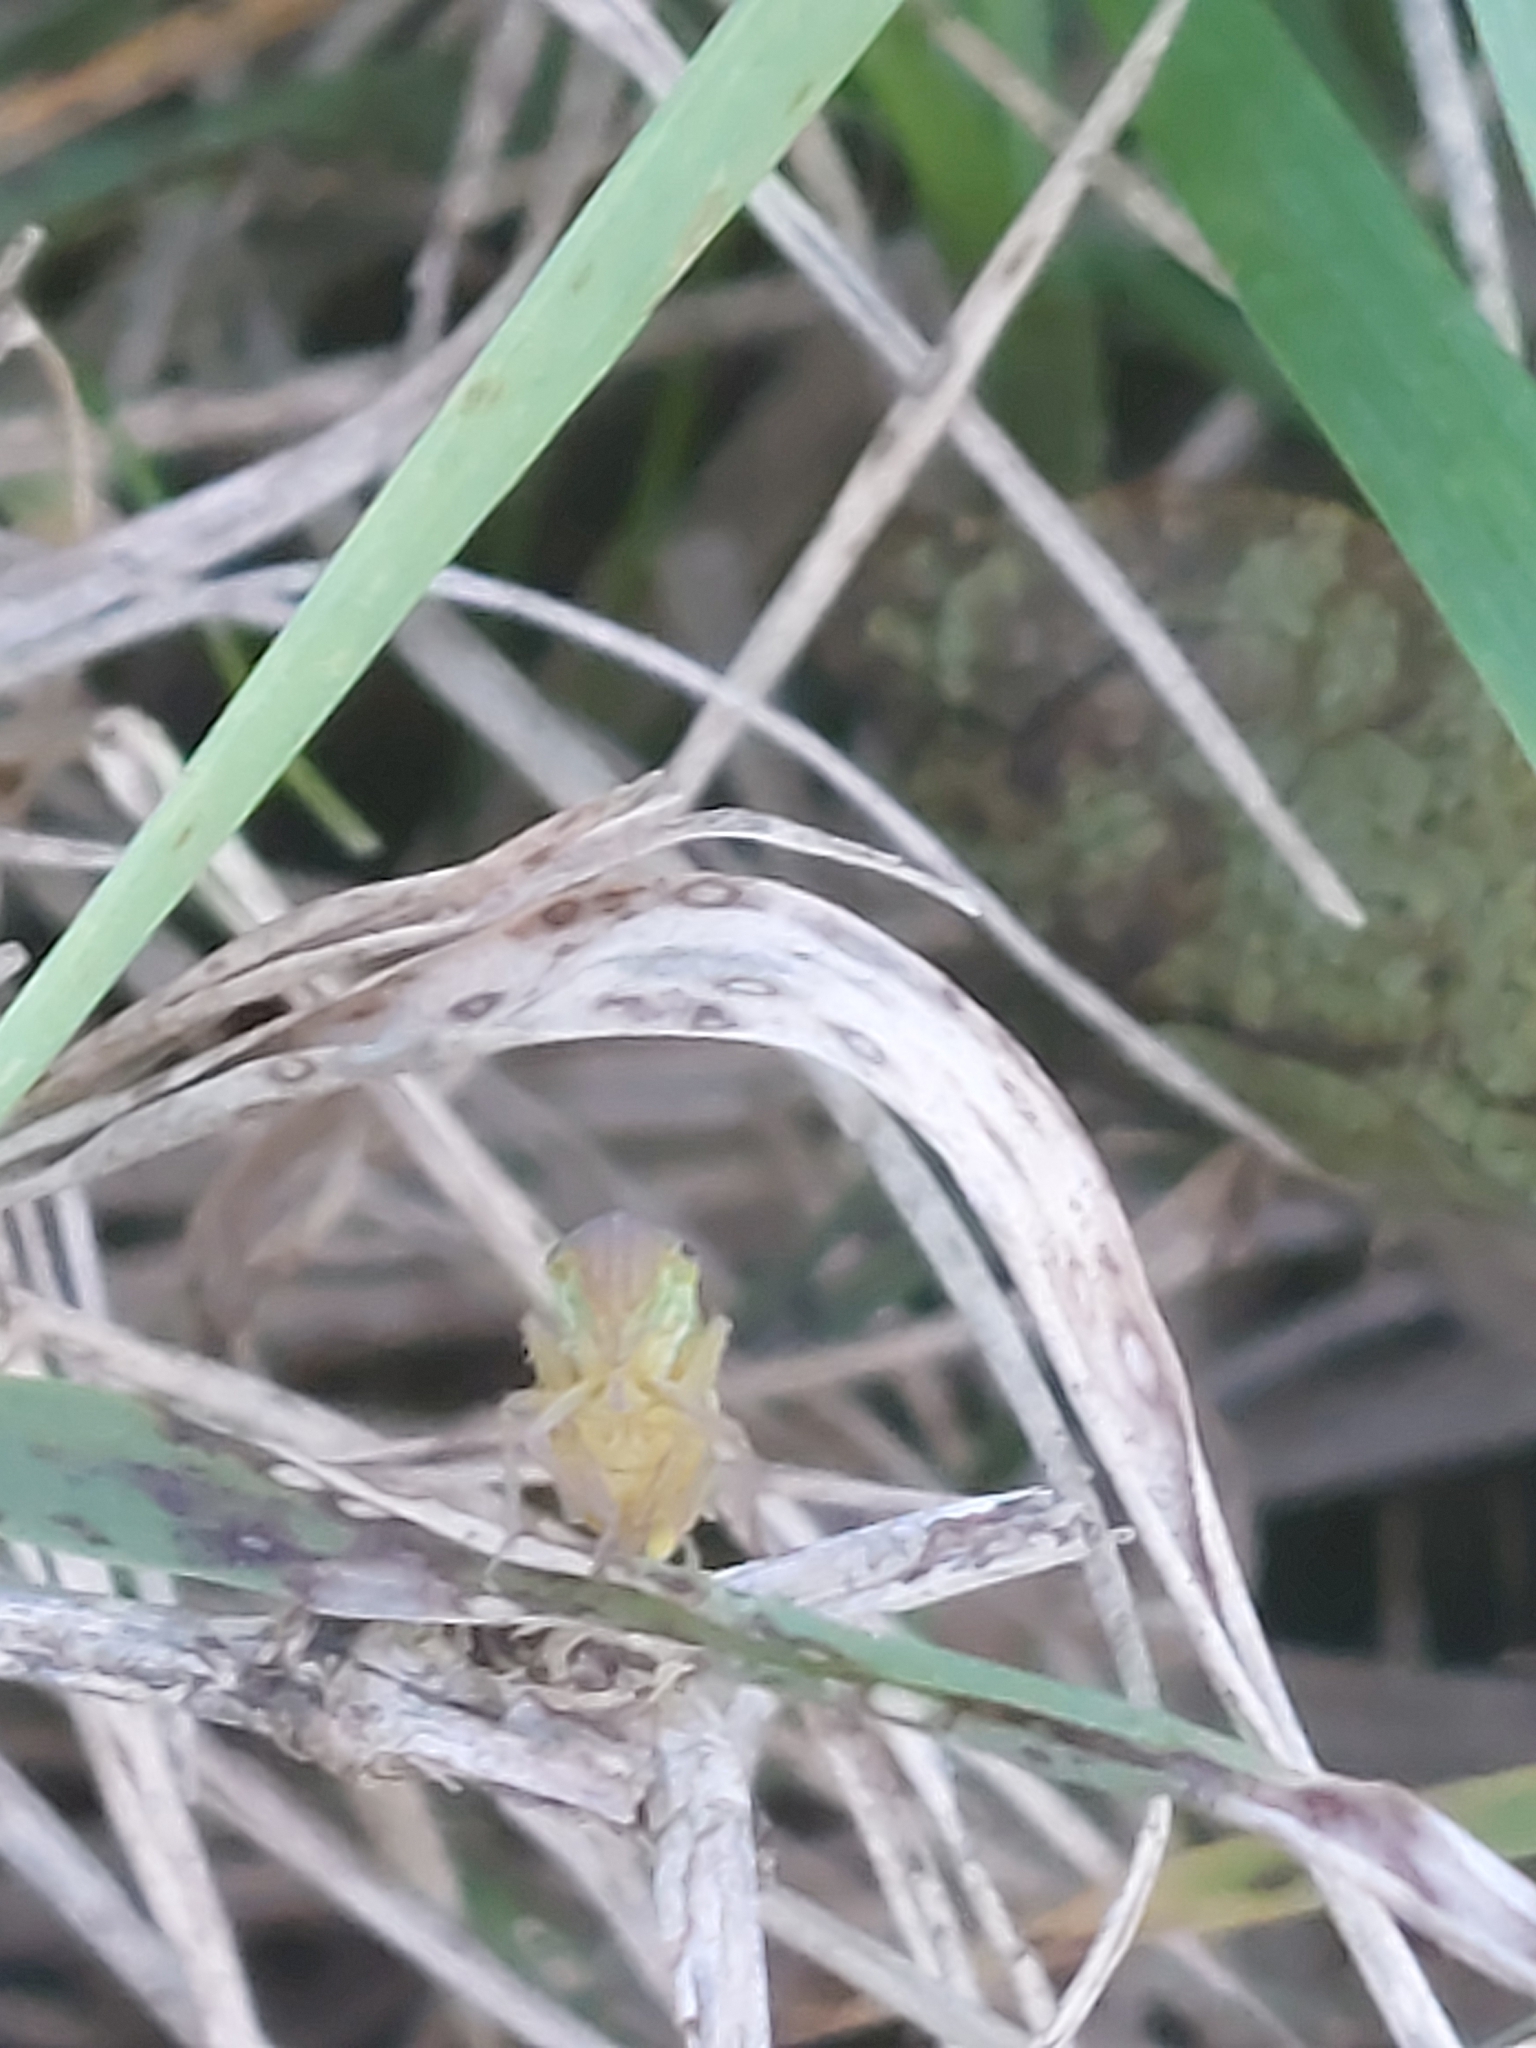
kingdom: Animalia
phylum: Arthropoda
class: Insecta
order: Hemiptera
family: Cicadellidae
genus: Cicadella
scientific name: Cicadella viridis
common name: Leafhopper
